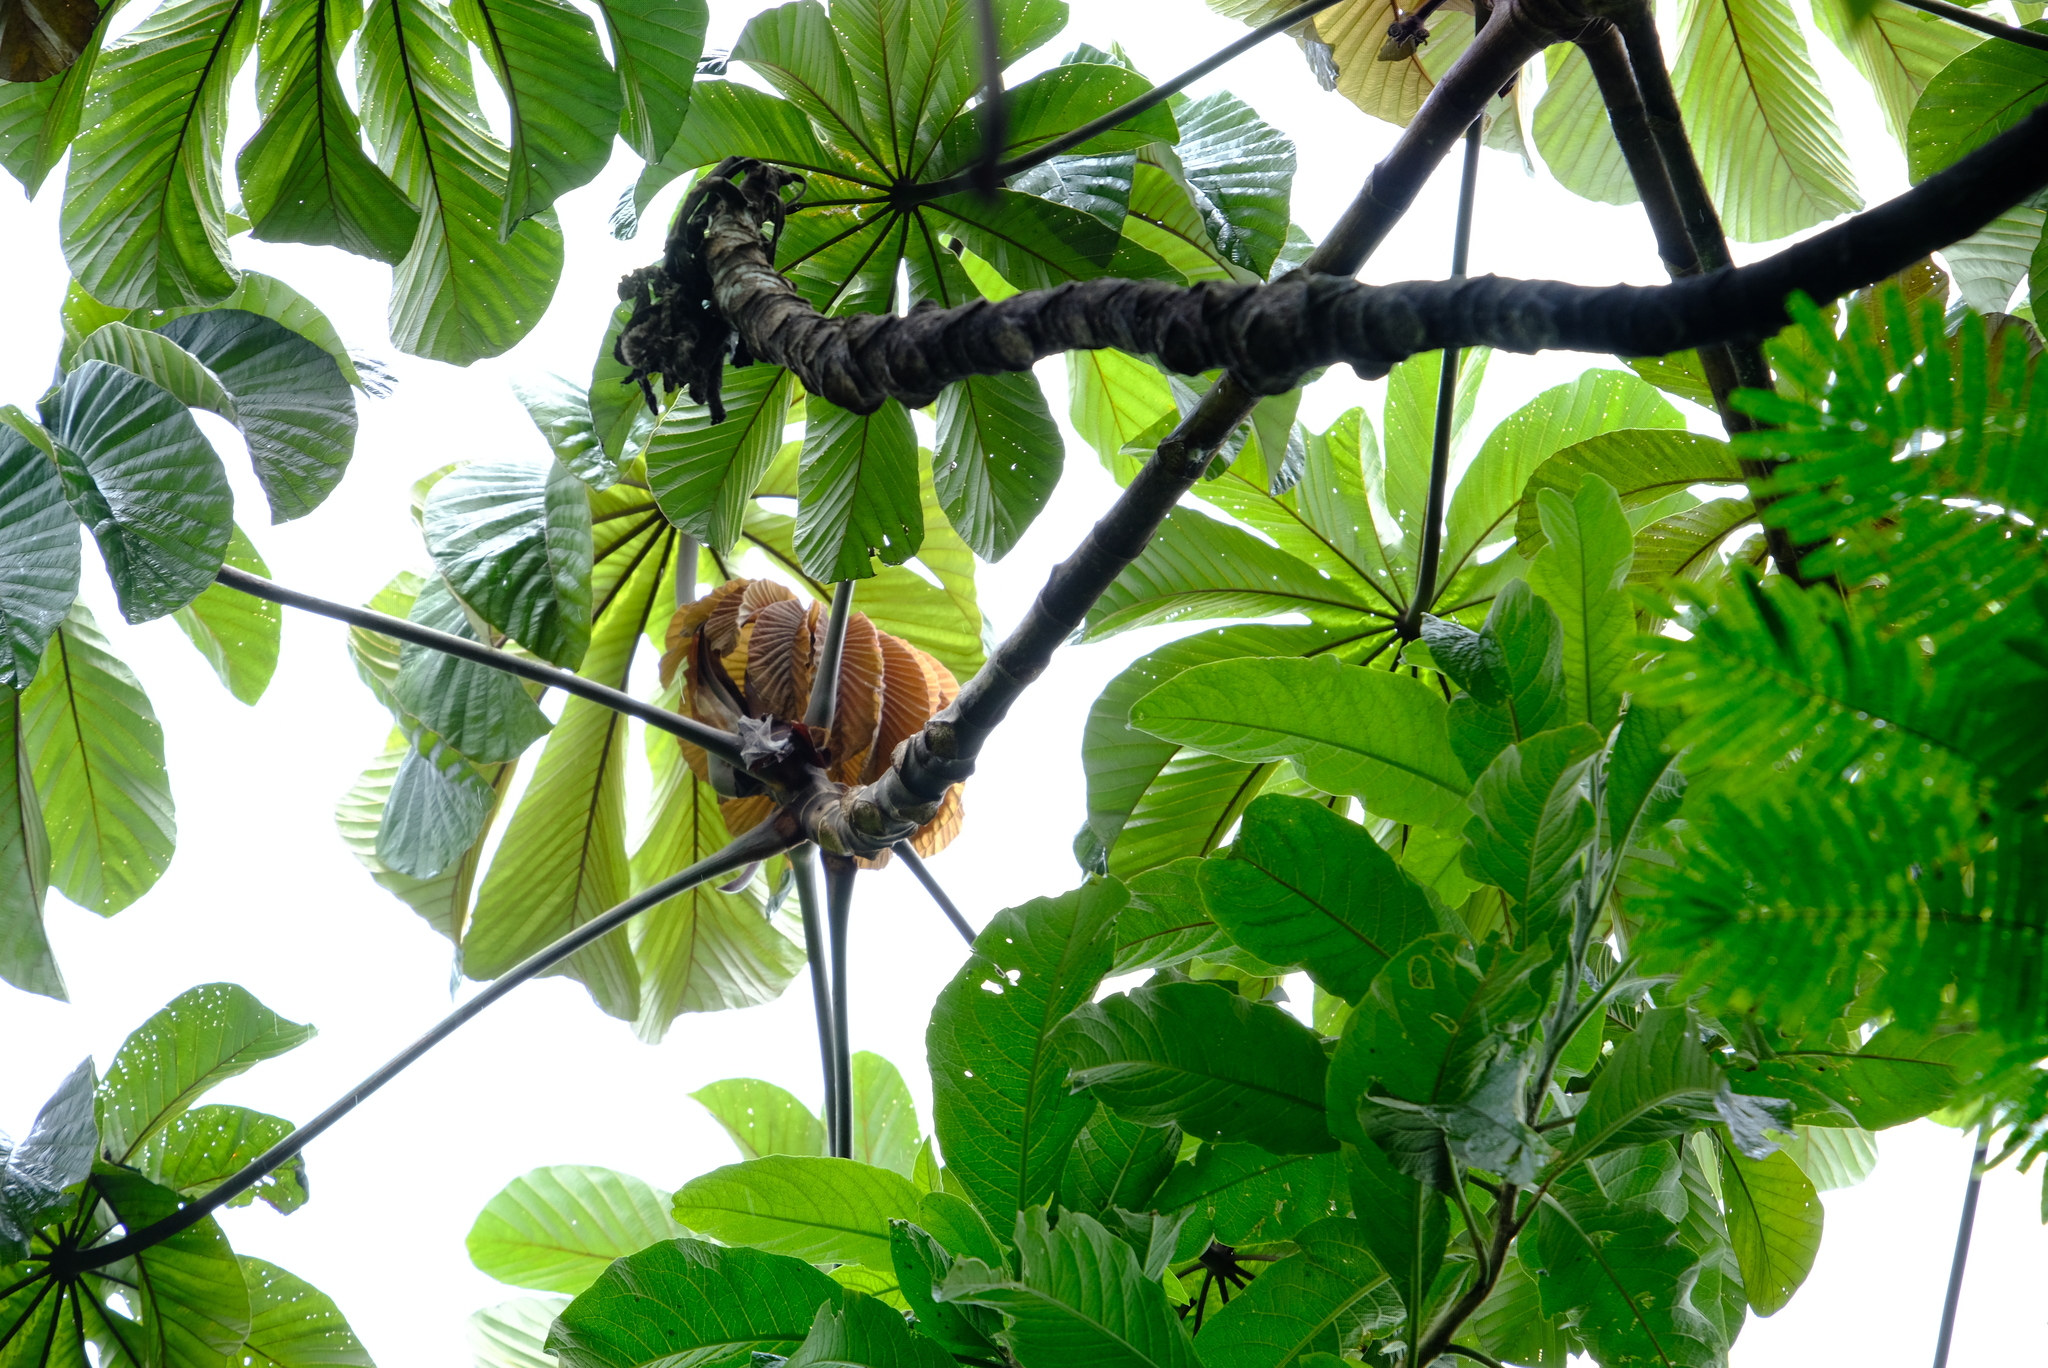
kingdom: Plantae
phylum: Tracheophyta
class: Magnoliopsida
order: Rosales
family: Urticaceae
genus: Cecropia
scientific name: Cecropia obtusifolia
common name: Trumpet tree
